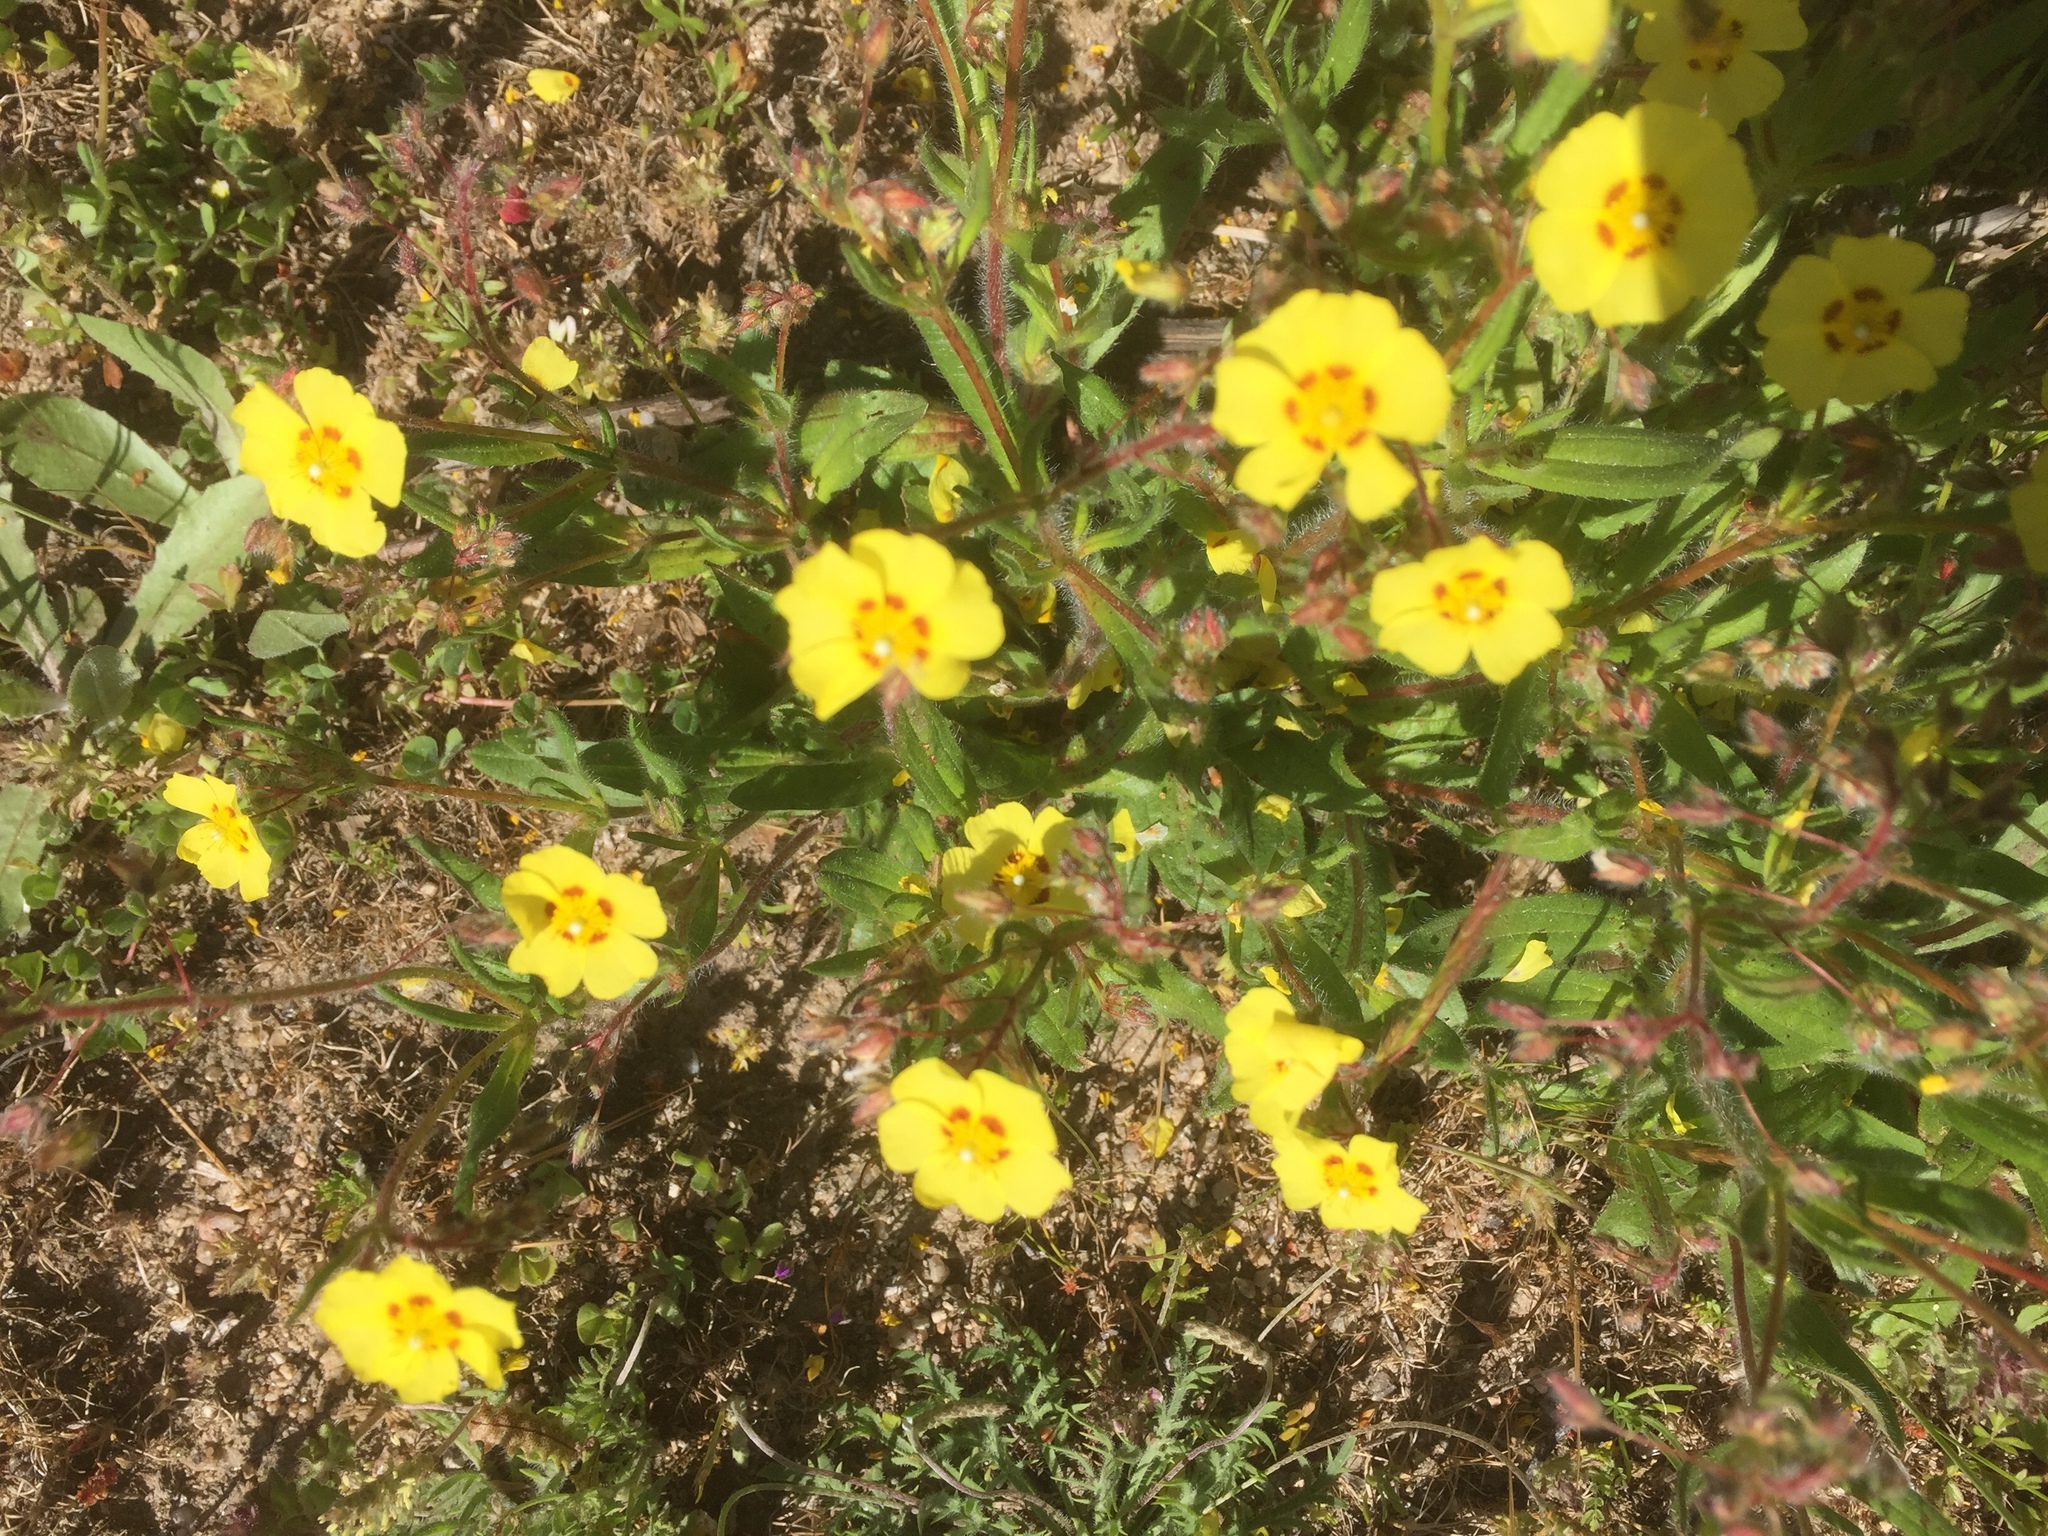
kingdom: Plantae
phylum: Tracheophyta
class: Magnoliopsida
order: Malvales
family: Cistaceae
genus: Tuberaria
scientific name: Tuberaria guttata
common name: Spotted rock-rose
